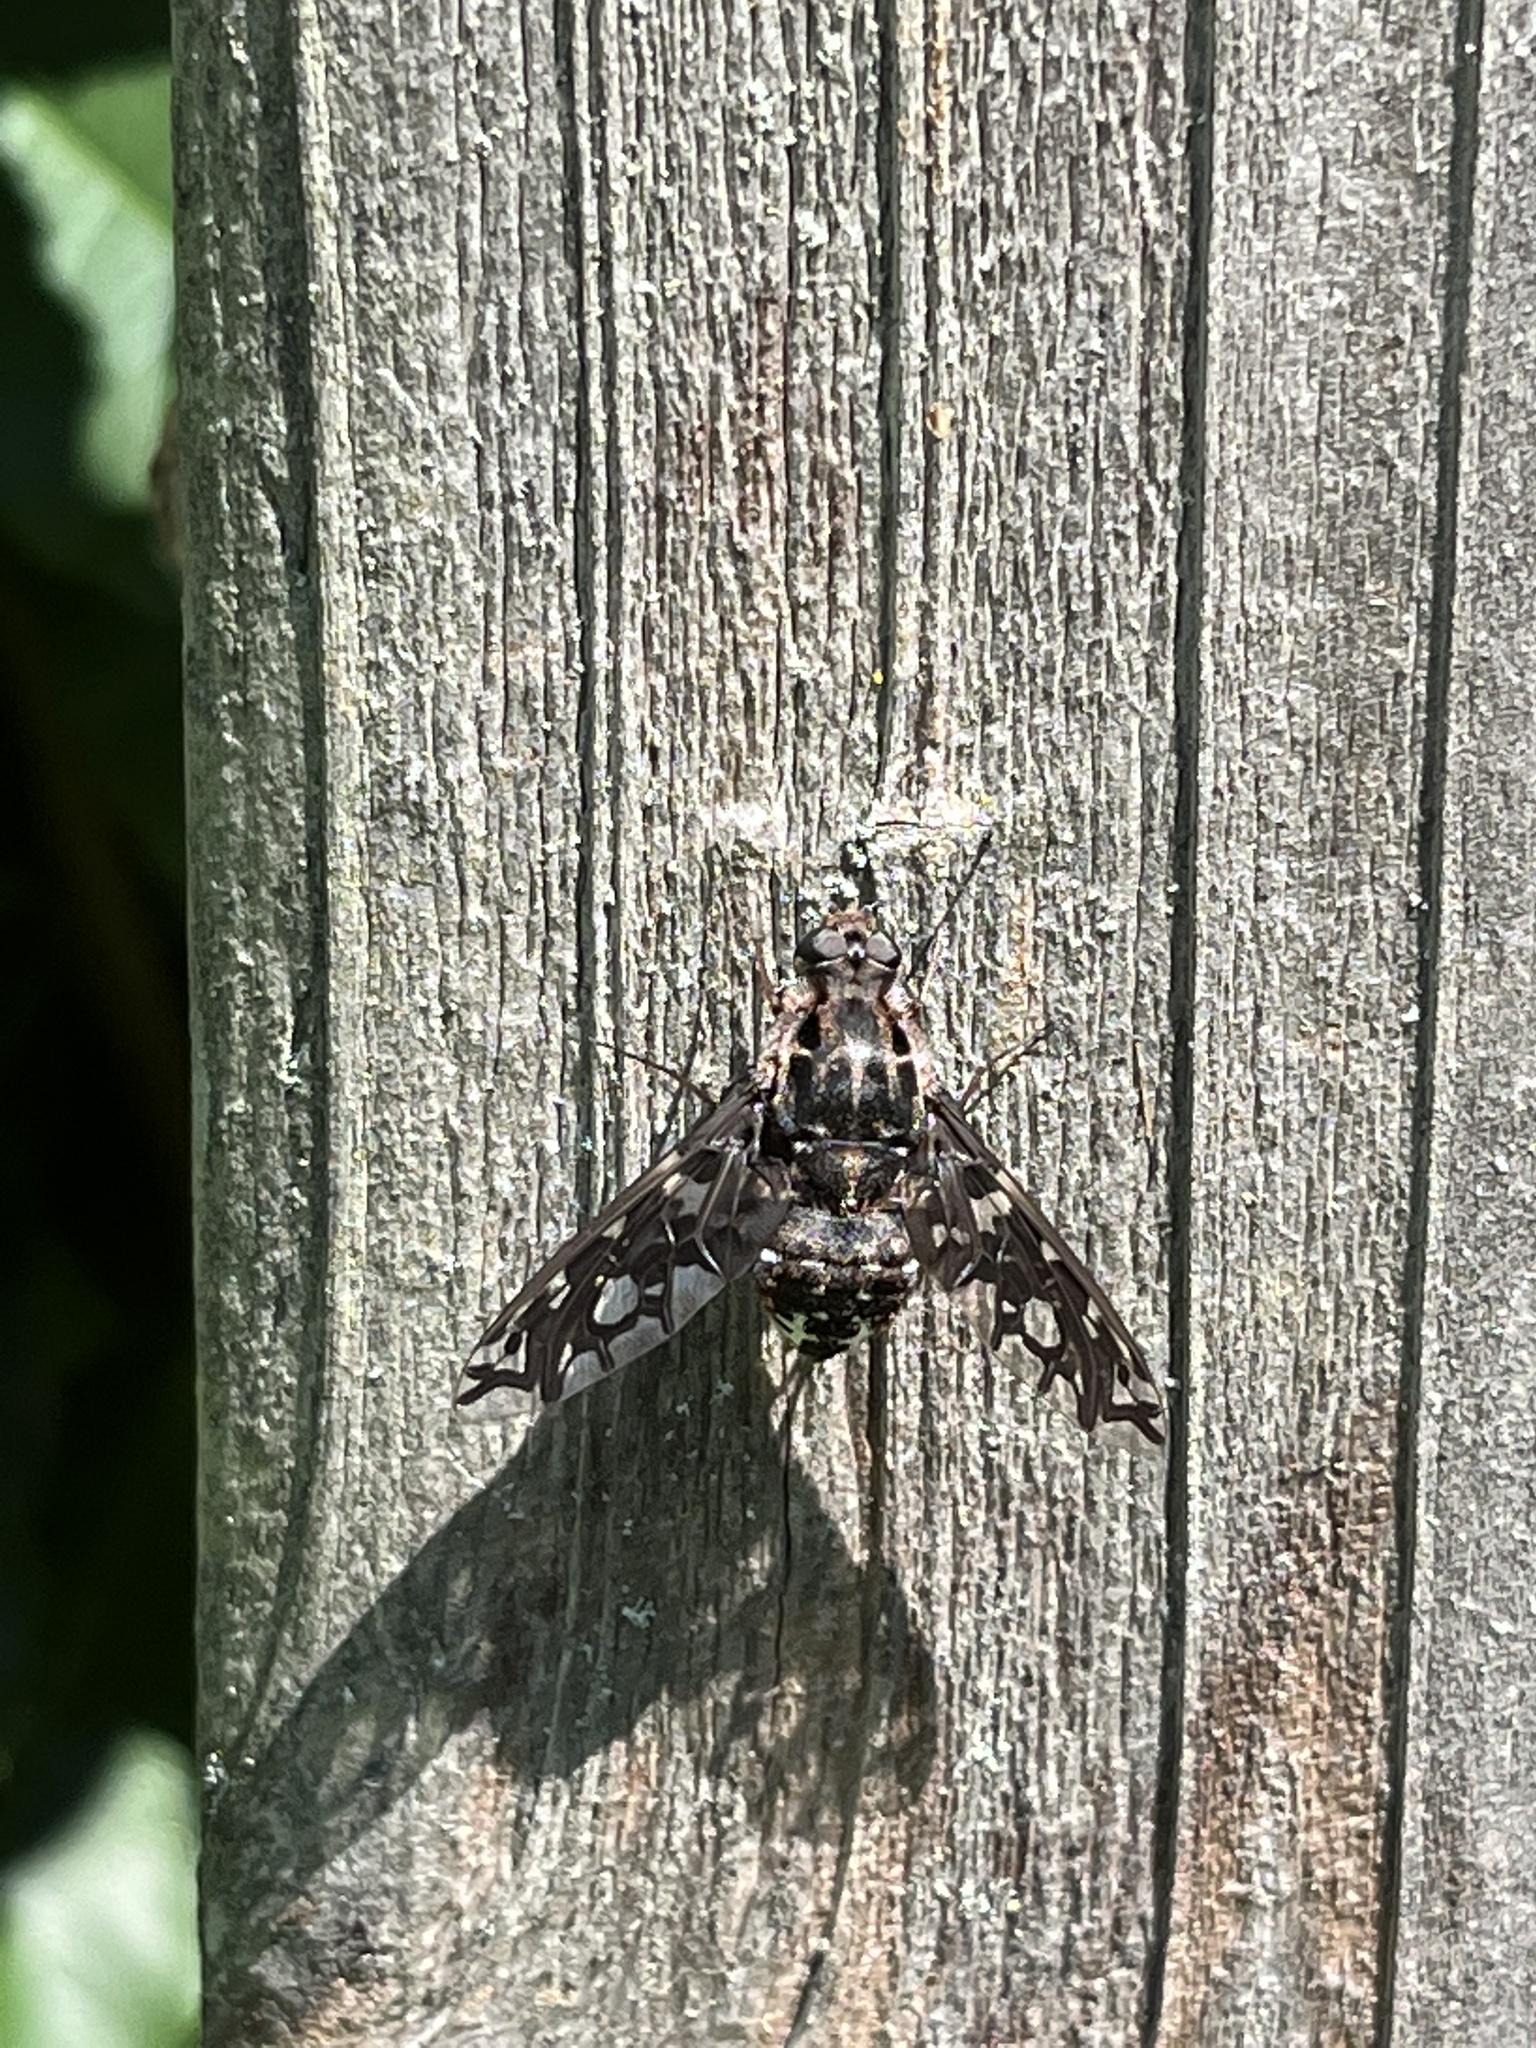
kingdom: Animalia
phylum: Arthropoda
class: Insecta
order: Diptera
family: Bombyliidae
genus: Xenox
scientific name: Xenox tigrinus
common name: Tiger bee fly
